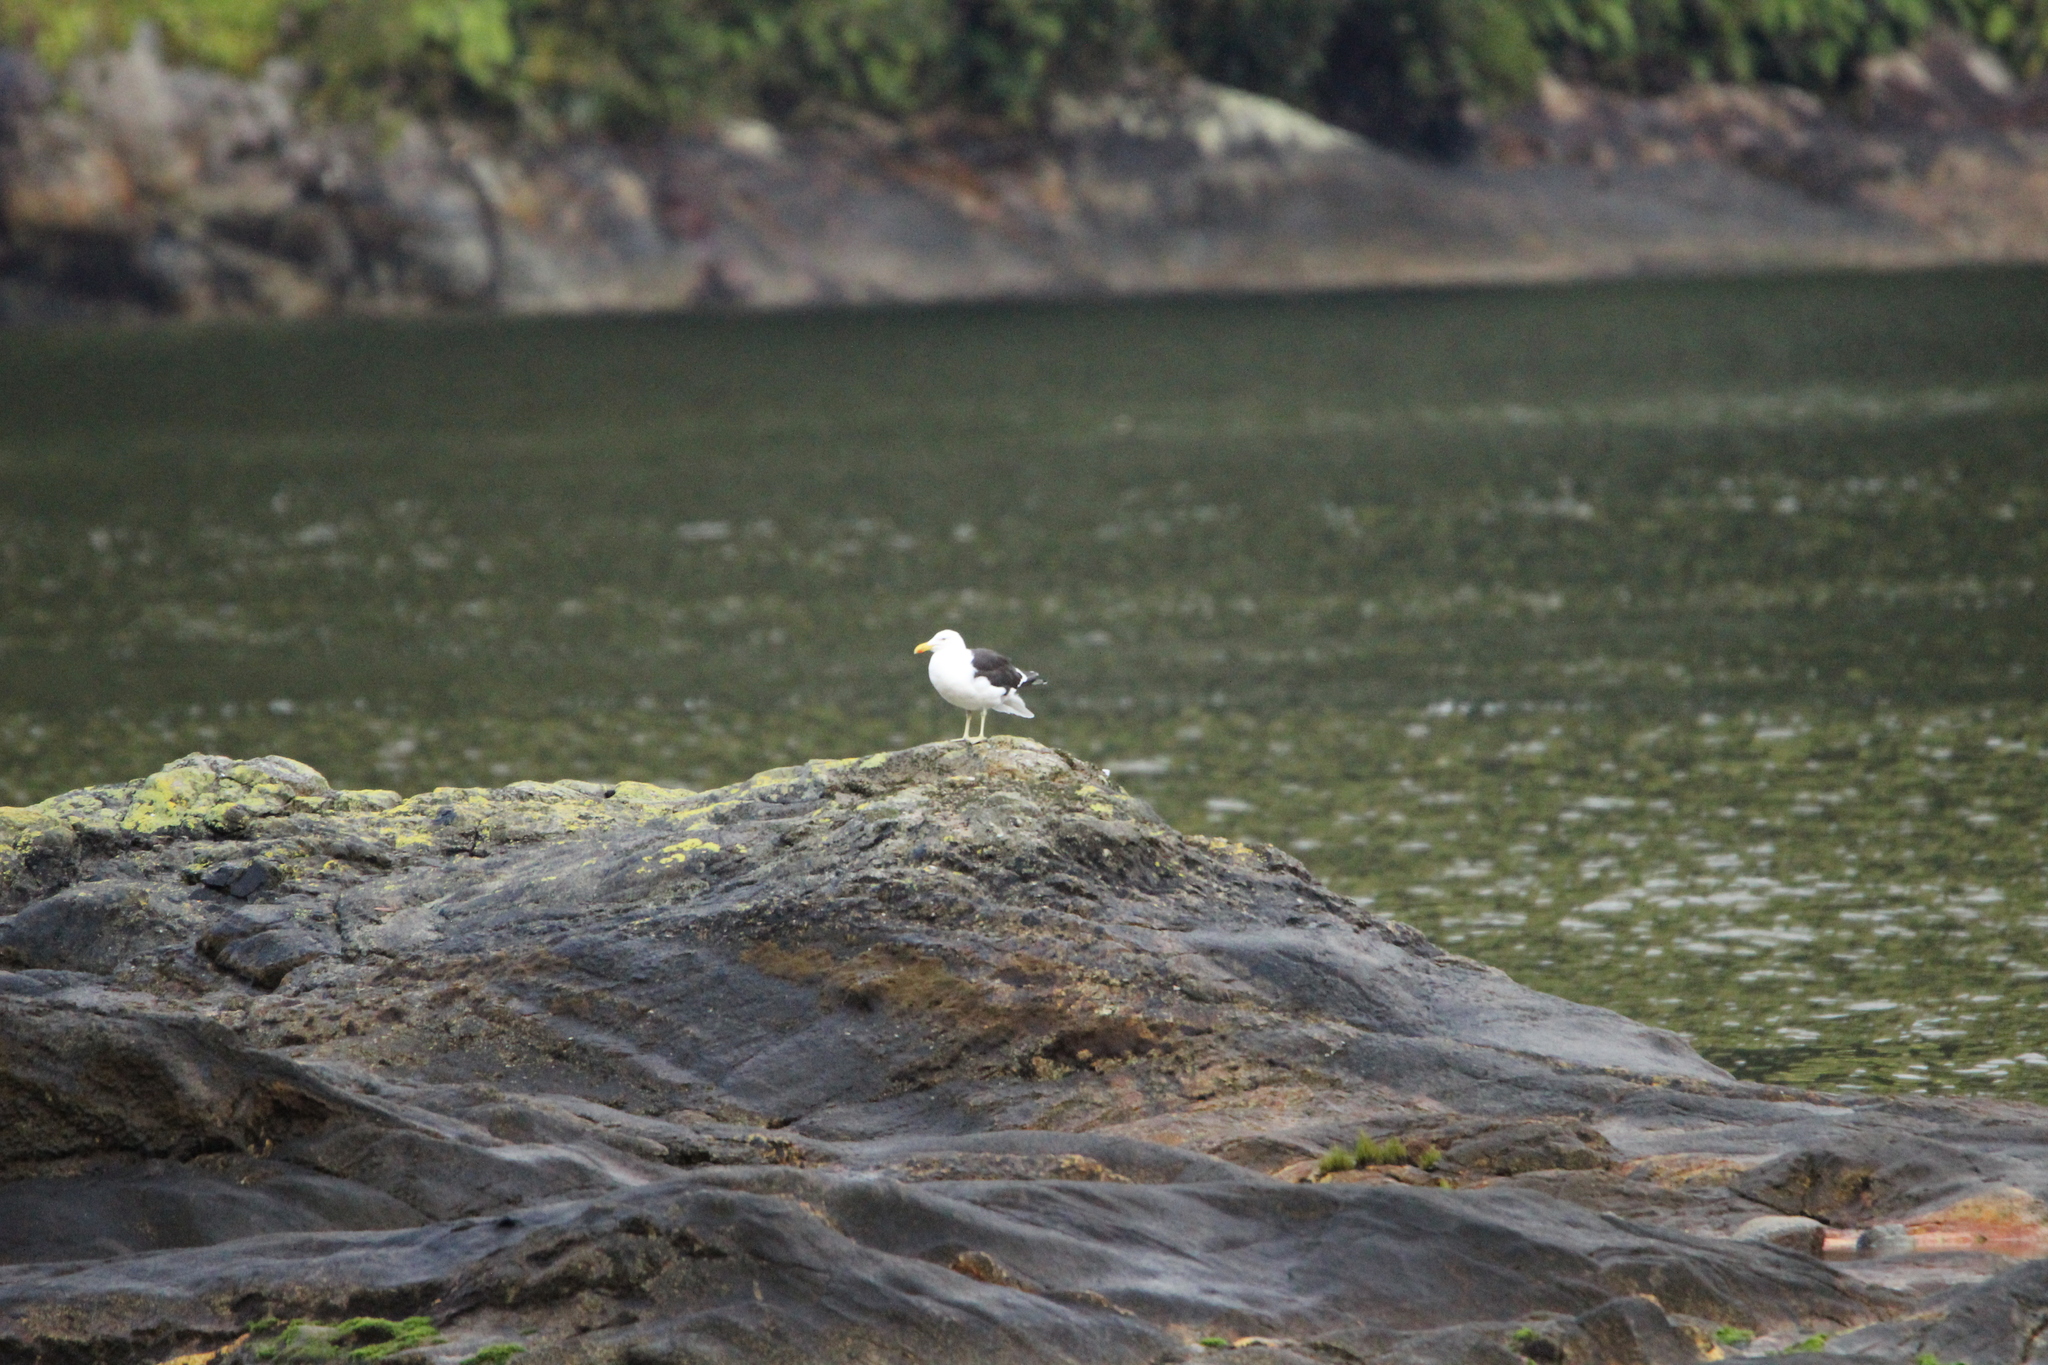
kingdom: Animalia
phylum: Chordata
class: Aves
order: Charadriiformes
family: Laridae
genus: Larus
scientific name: Larus dominicanus
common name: Kelp gull
